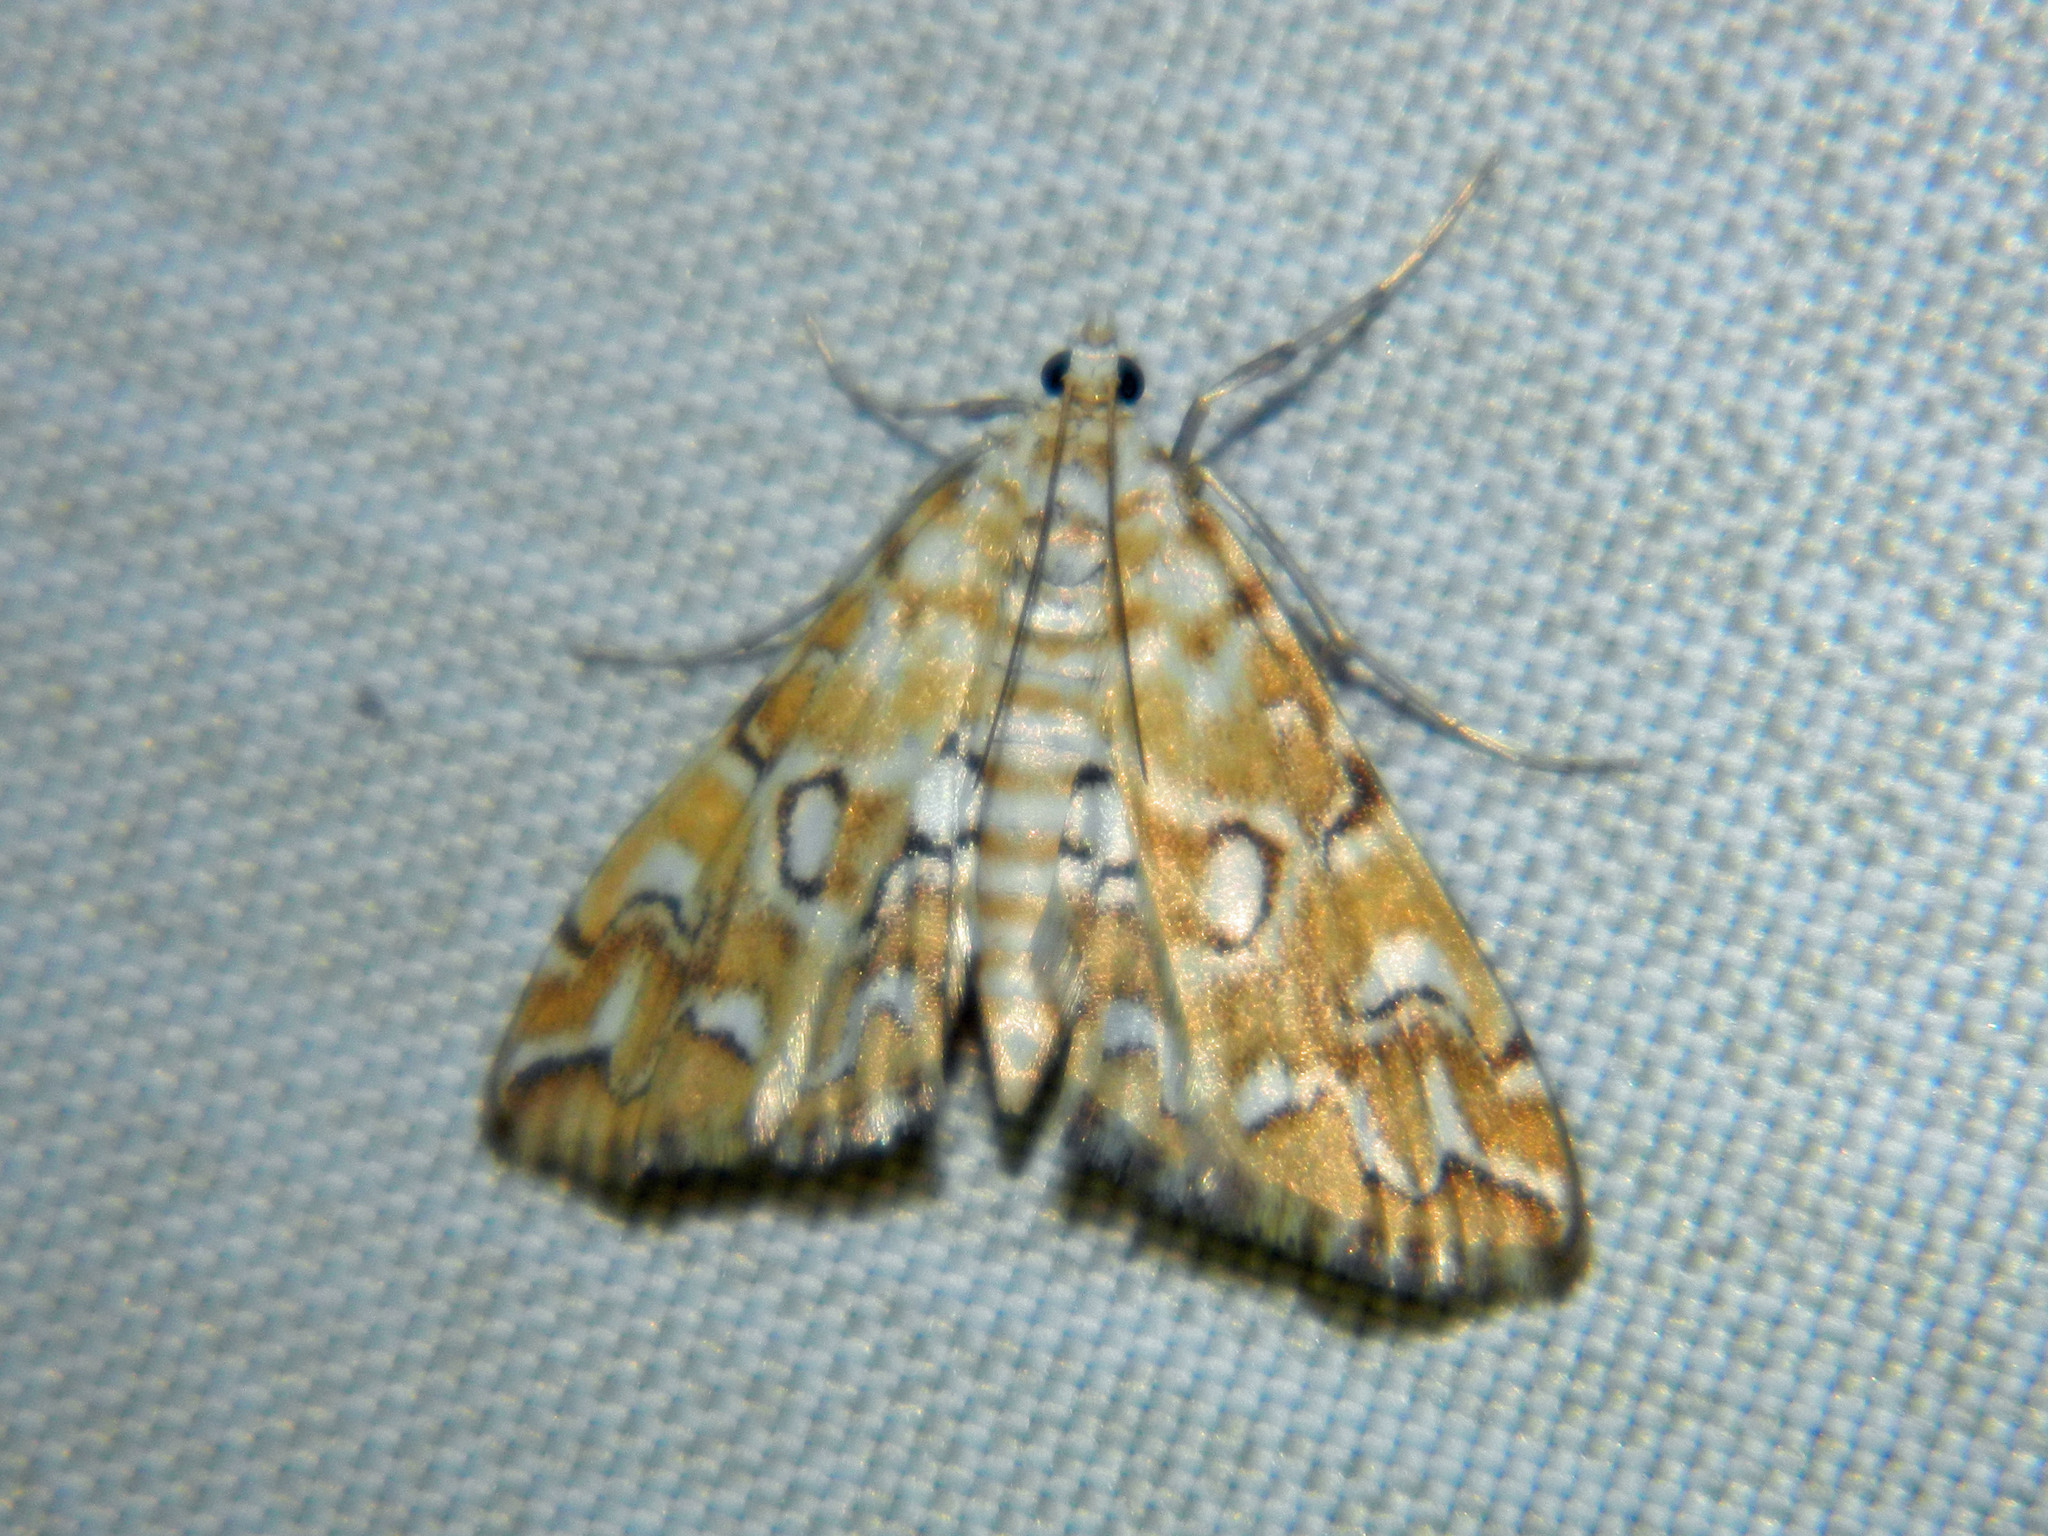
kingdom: Animalia
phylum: Arthropoda
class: Insecta
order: Lepidoptera
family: Crambidae
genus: Elophila
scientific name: Elophila icciusalis
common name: Pondside pyralid moth
